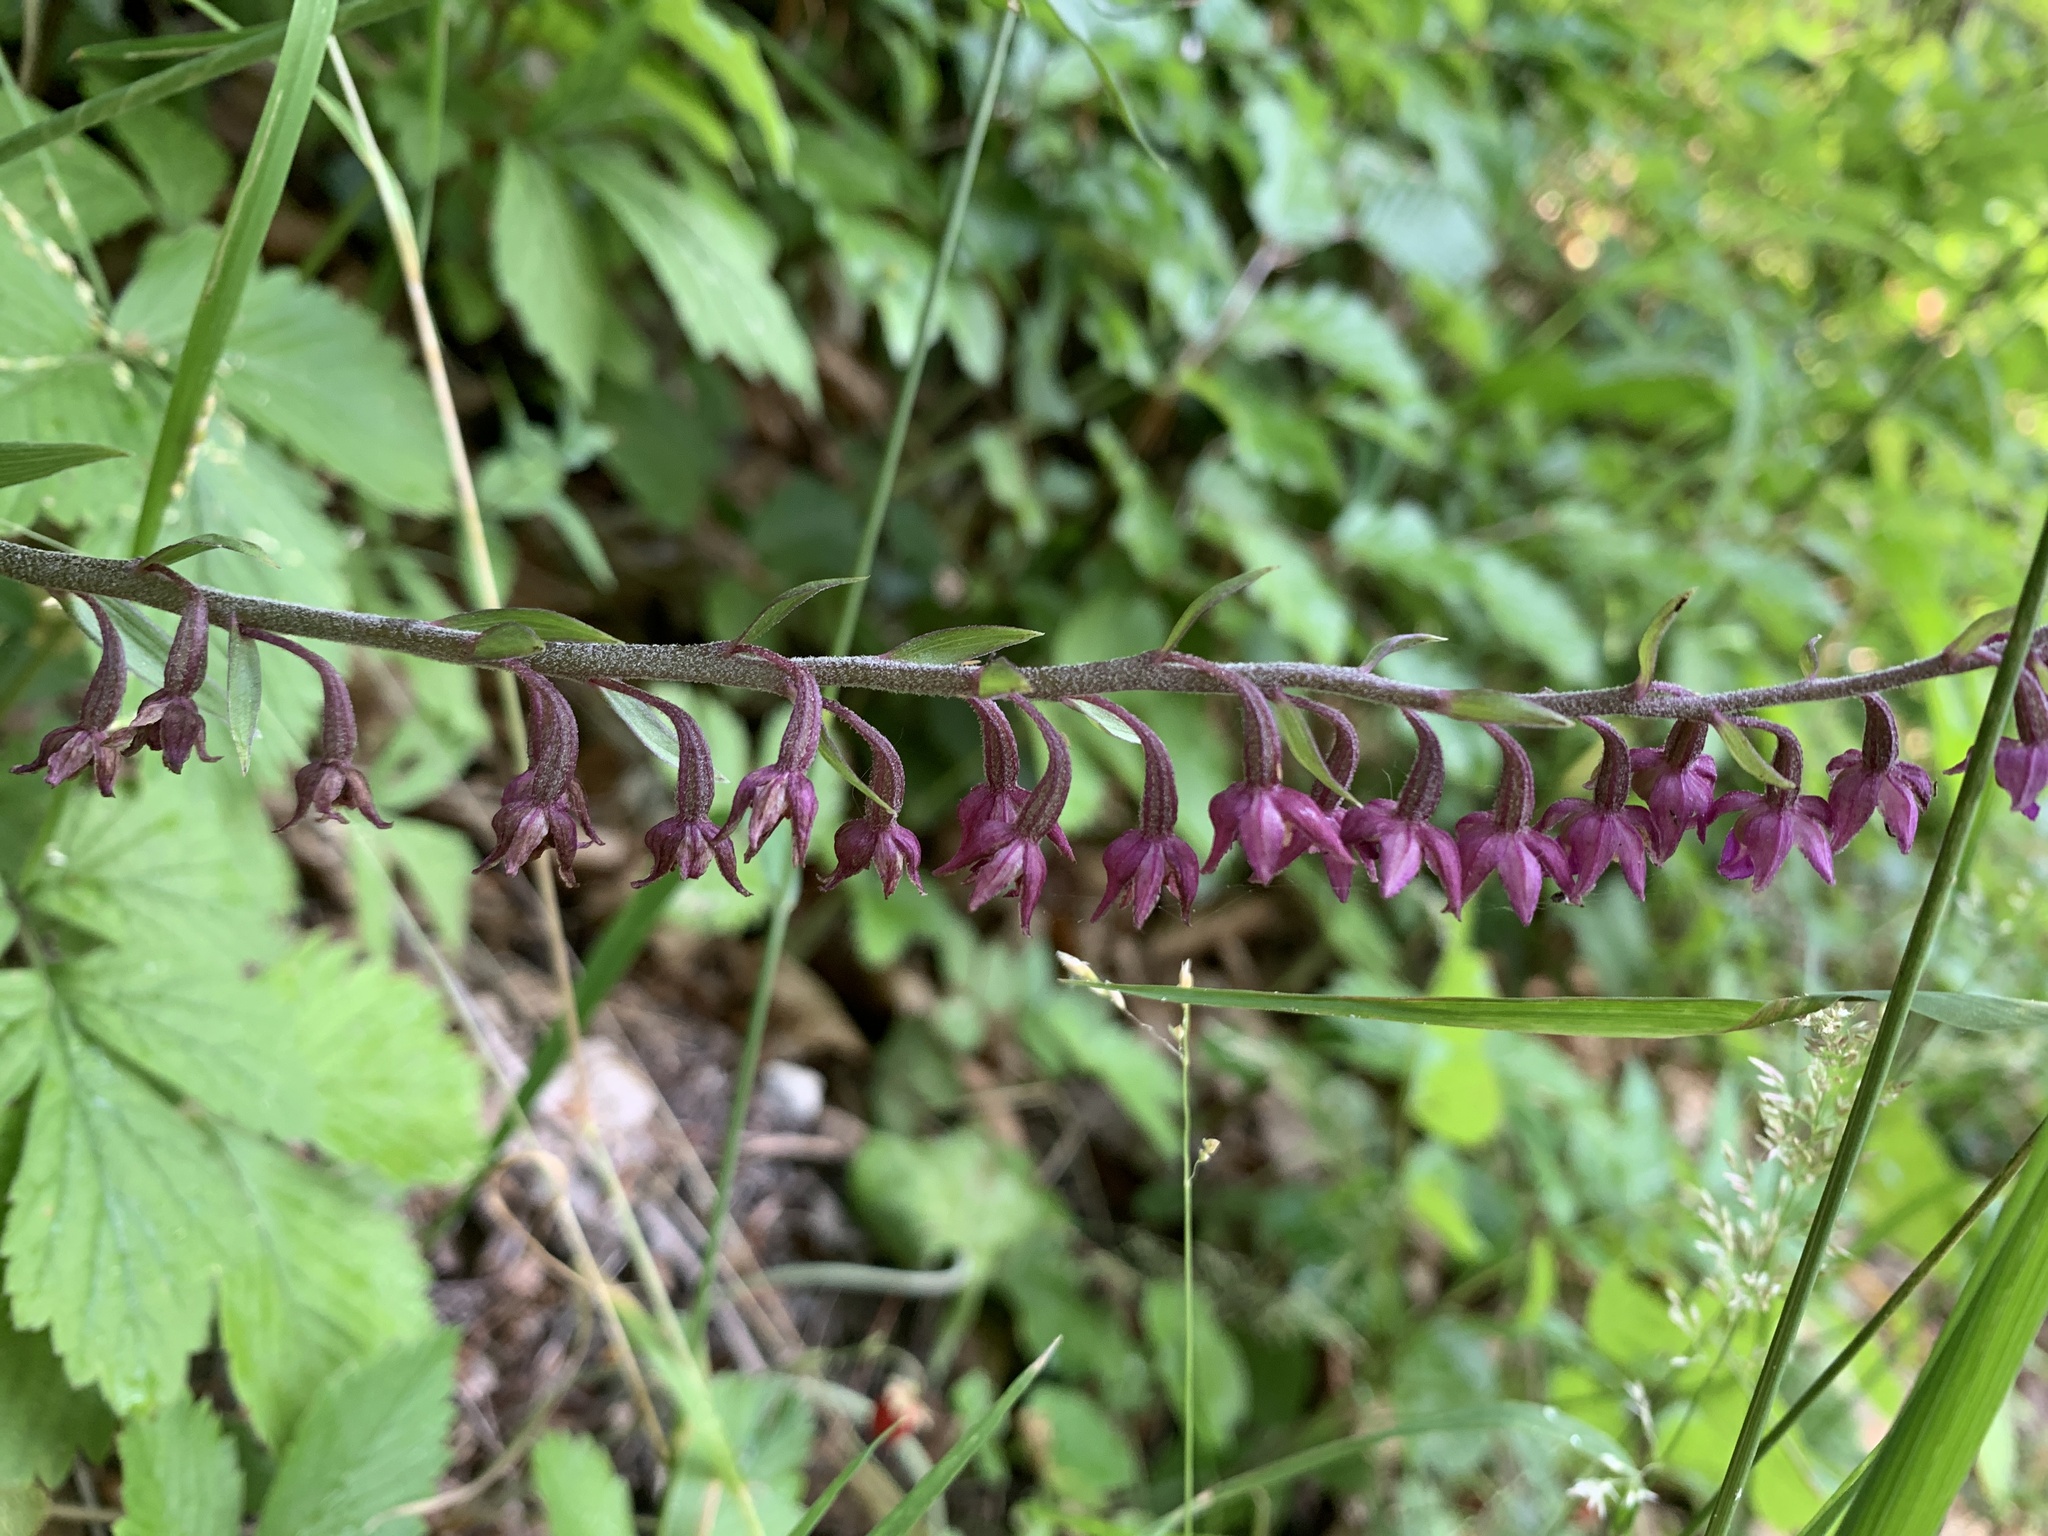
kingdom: Plantae
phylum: Tracheophyta
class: Liliopsida
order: Asparagales
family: Orchidaceae
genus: Epipactis
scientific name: Epipactis atrorubens
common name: Dark-red helleborine
